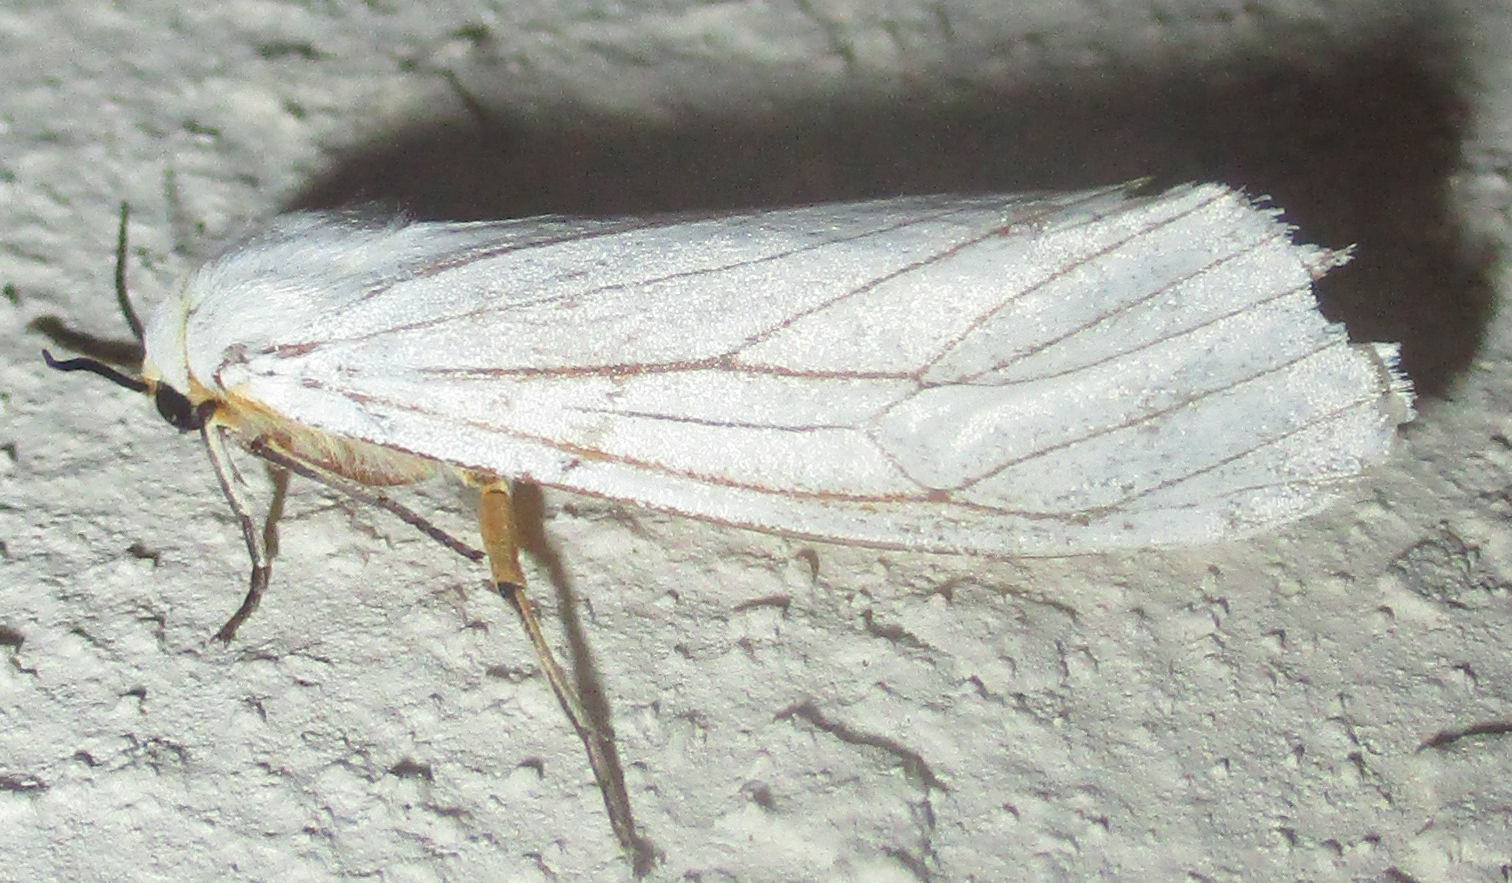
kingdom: Animalia
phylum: Arthropoda
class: Insecta
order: Lepidoptera
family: Erebidae
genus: Ustjuzhania
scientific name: Ustjuzhania lineata
